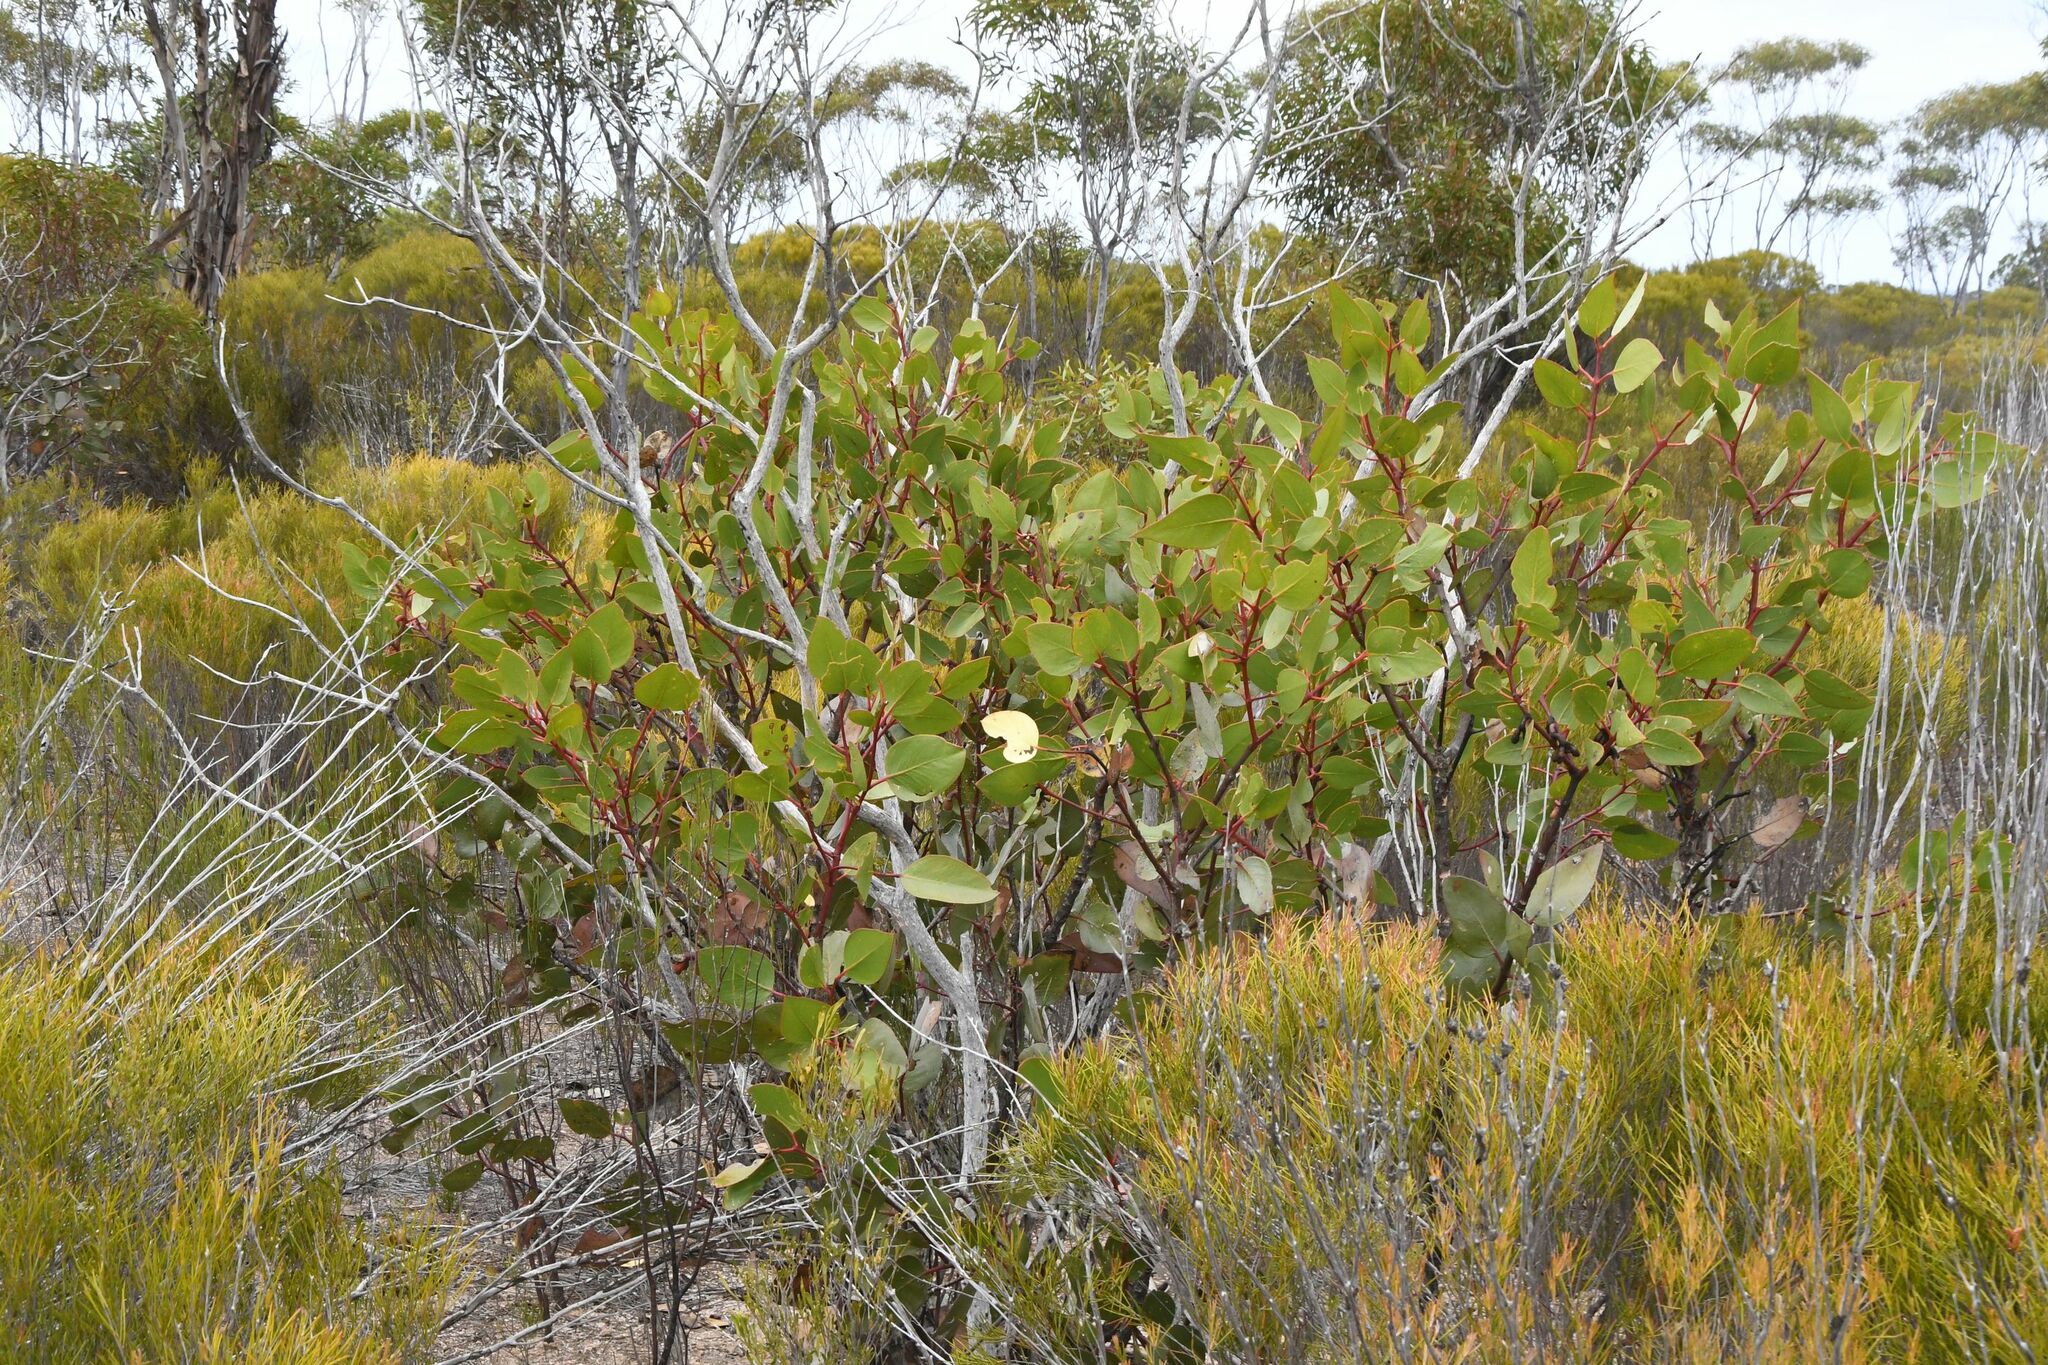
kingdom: Plantae
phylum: Tracheophyta
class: Magnoliopsida
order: Myrtales
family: Myrtaceae
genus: Eucalyptus
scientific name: Eucalyptus grossa
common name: Coarse-leaved mallee
